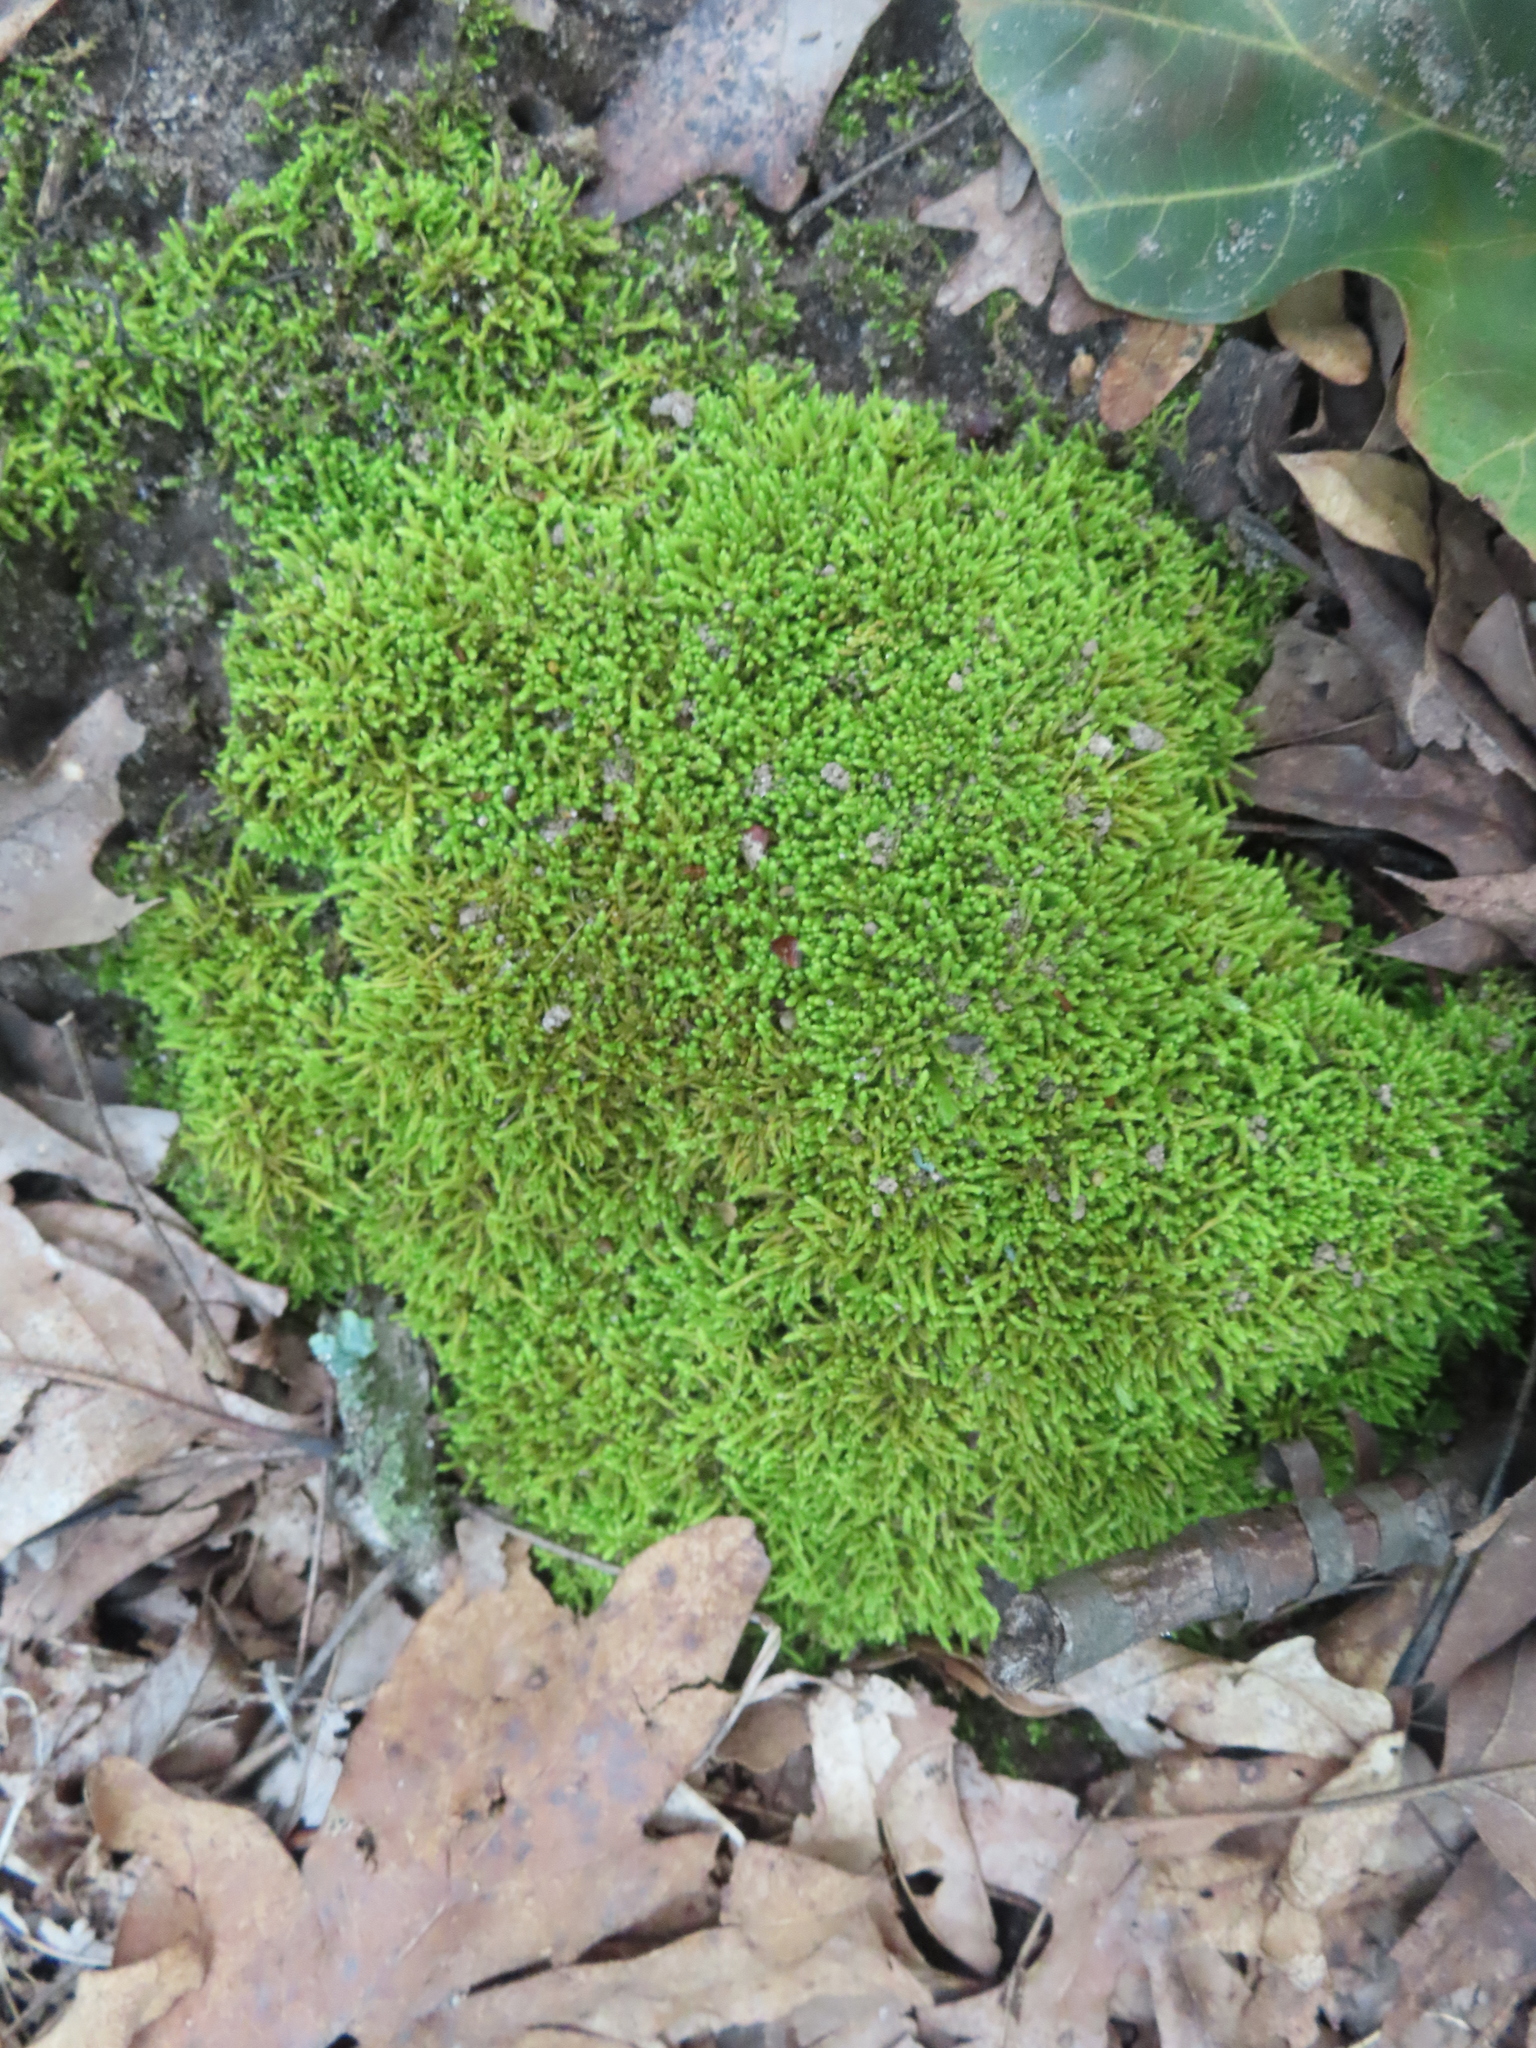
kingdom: Plantae
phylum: Bryophyta
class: Bryopsida
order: Hypnales
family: Brachytheciaceae
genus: Claopodium
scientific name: Claopodium rostratum
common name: Yellow yarn moss
